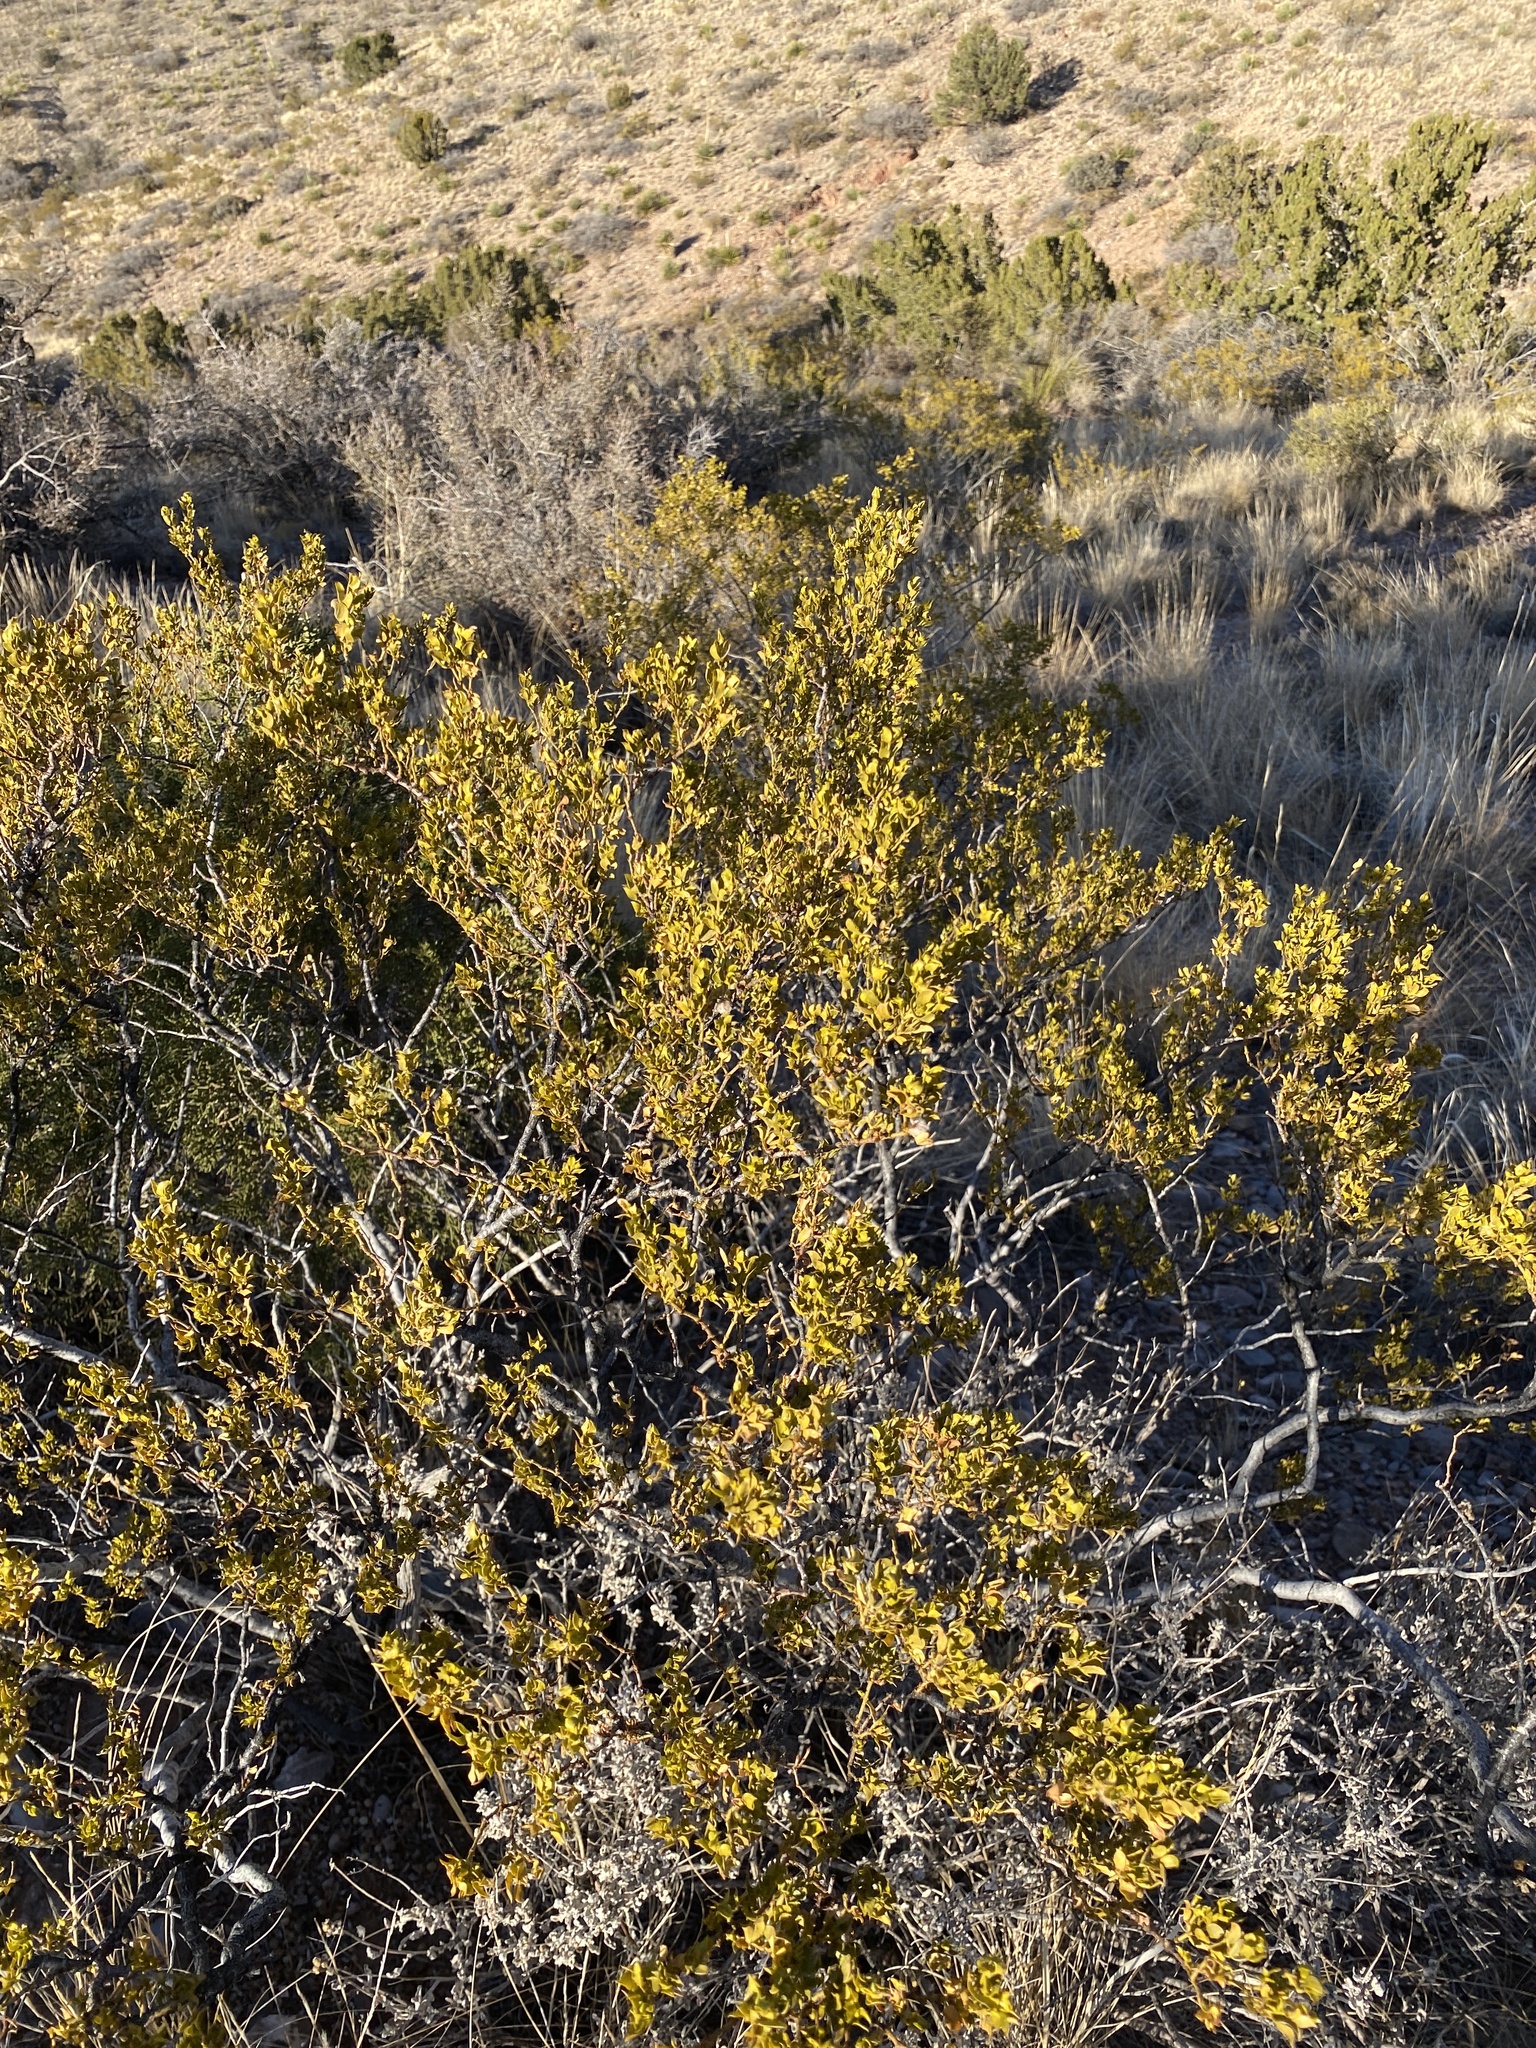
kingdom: Plantae
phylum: Tracheophyta
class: Magnoliopsida
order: Zygophyllales
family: Zygophyllaceae
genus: Larrea
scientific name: Larrea tridentata
